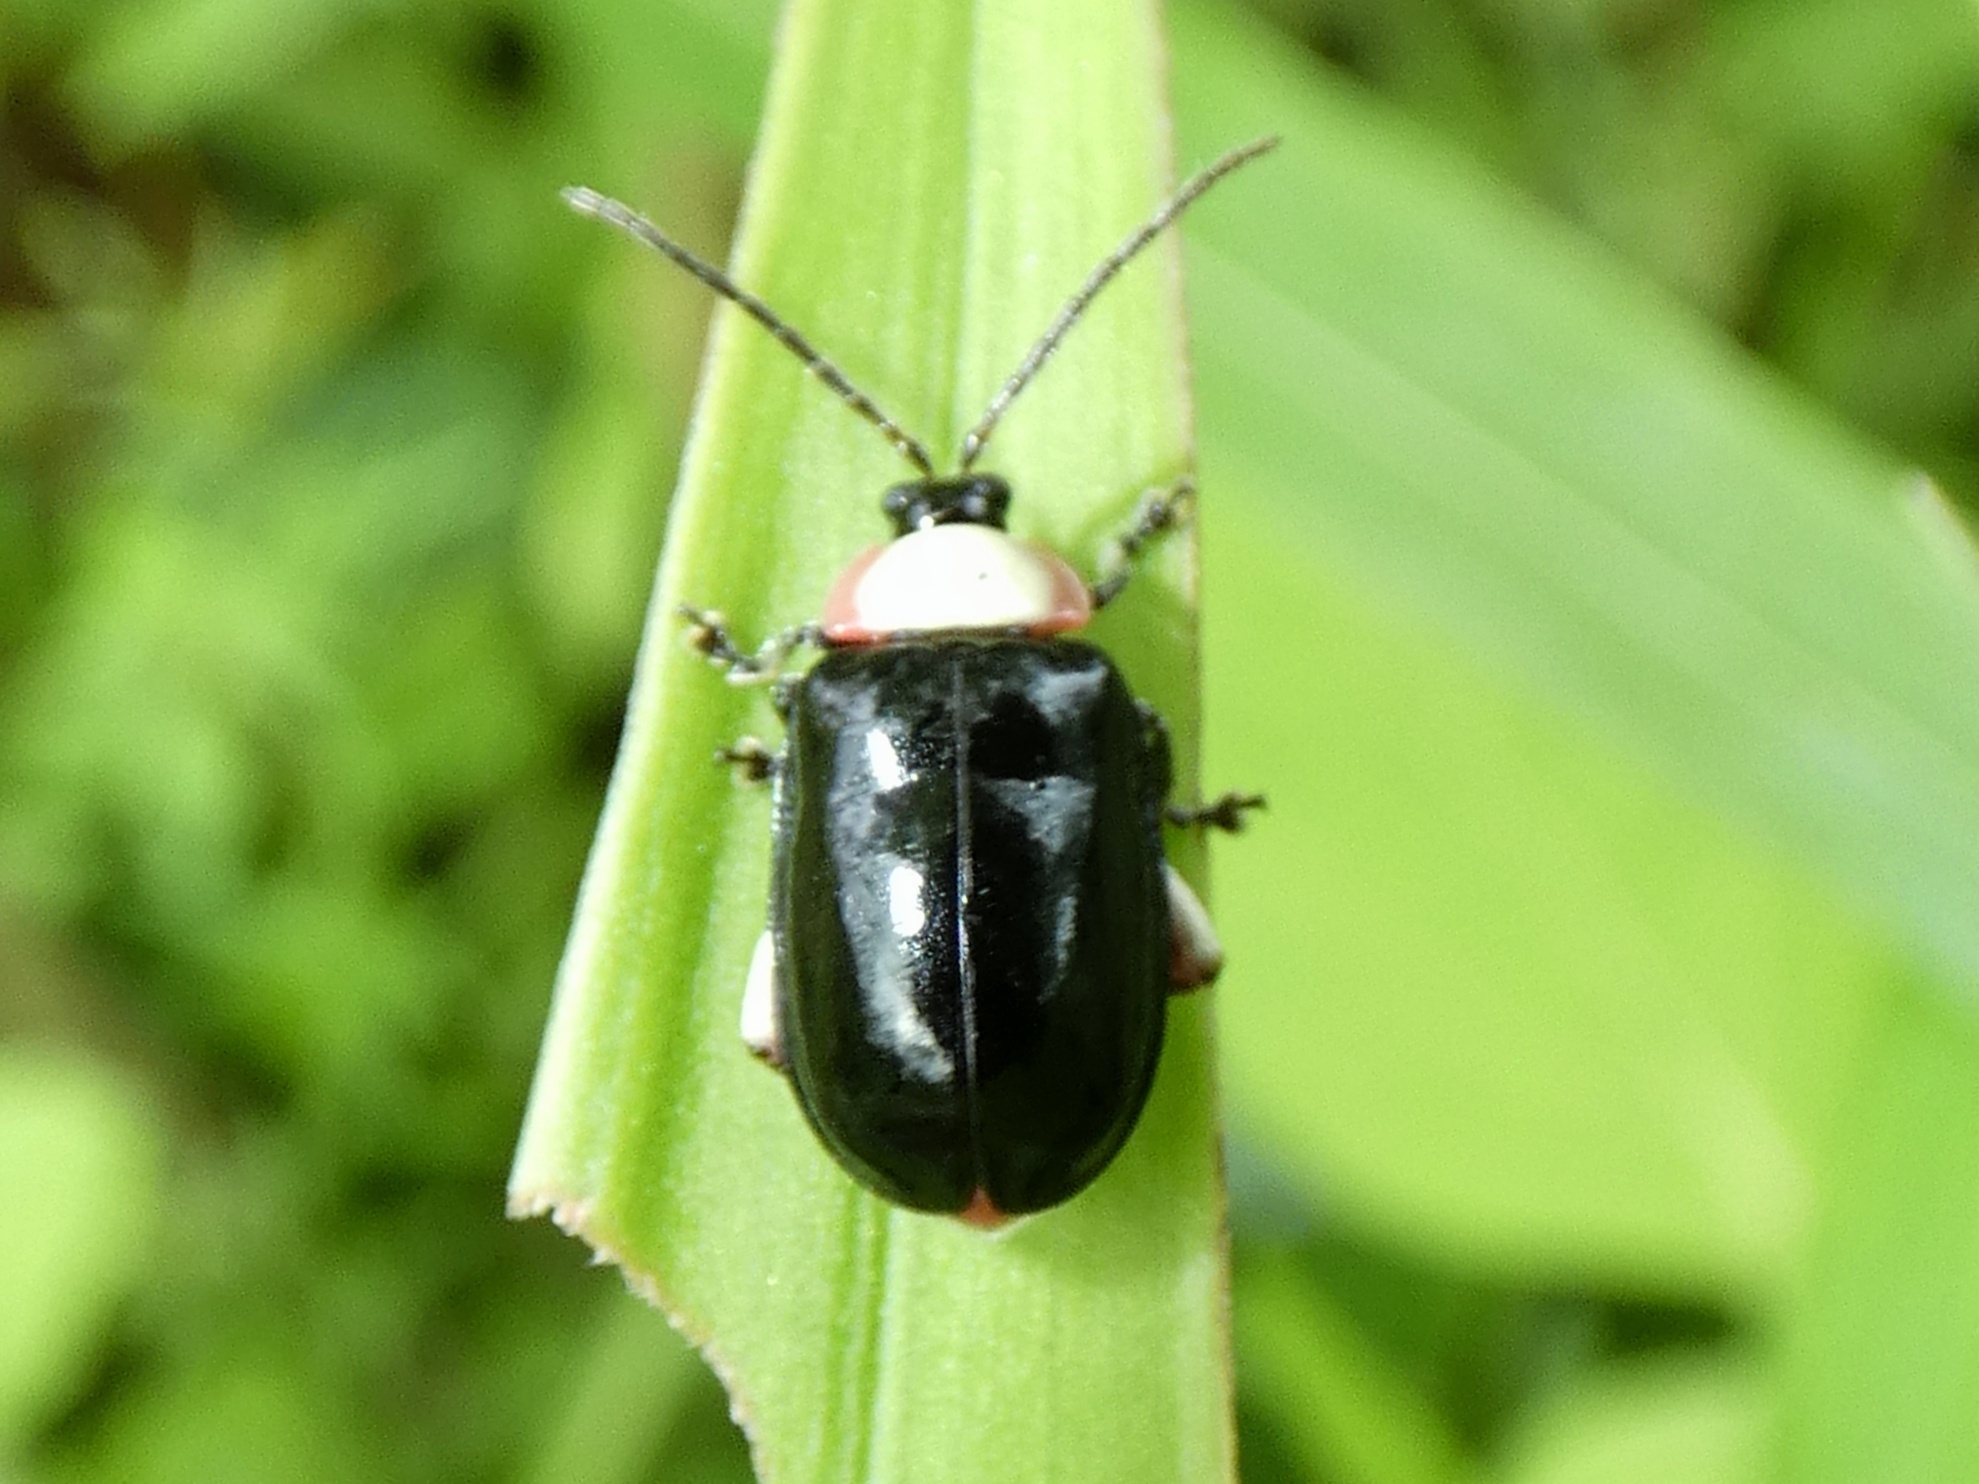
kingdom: Animalia
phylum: Arthropoda
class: Insecta
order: Coleoptera
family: Chrysomelidae
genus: Asphaera
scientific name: Asphaera
